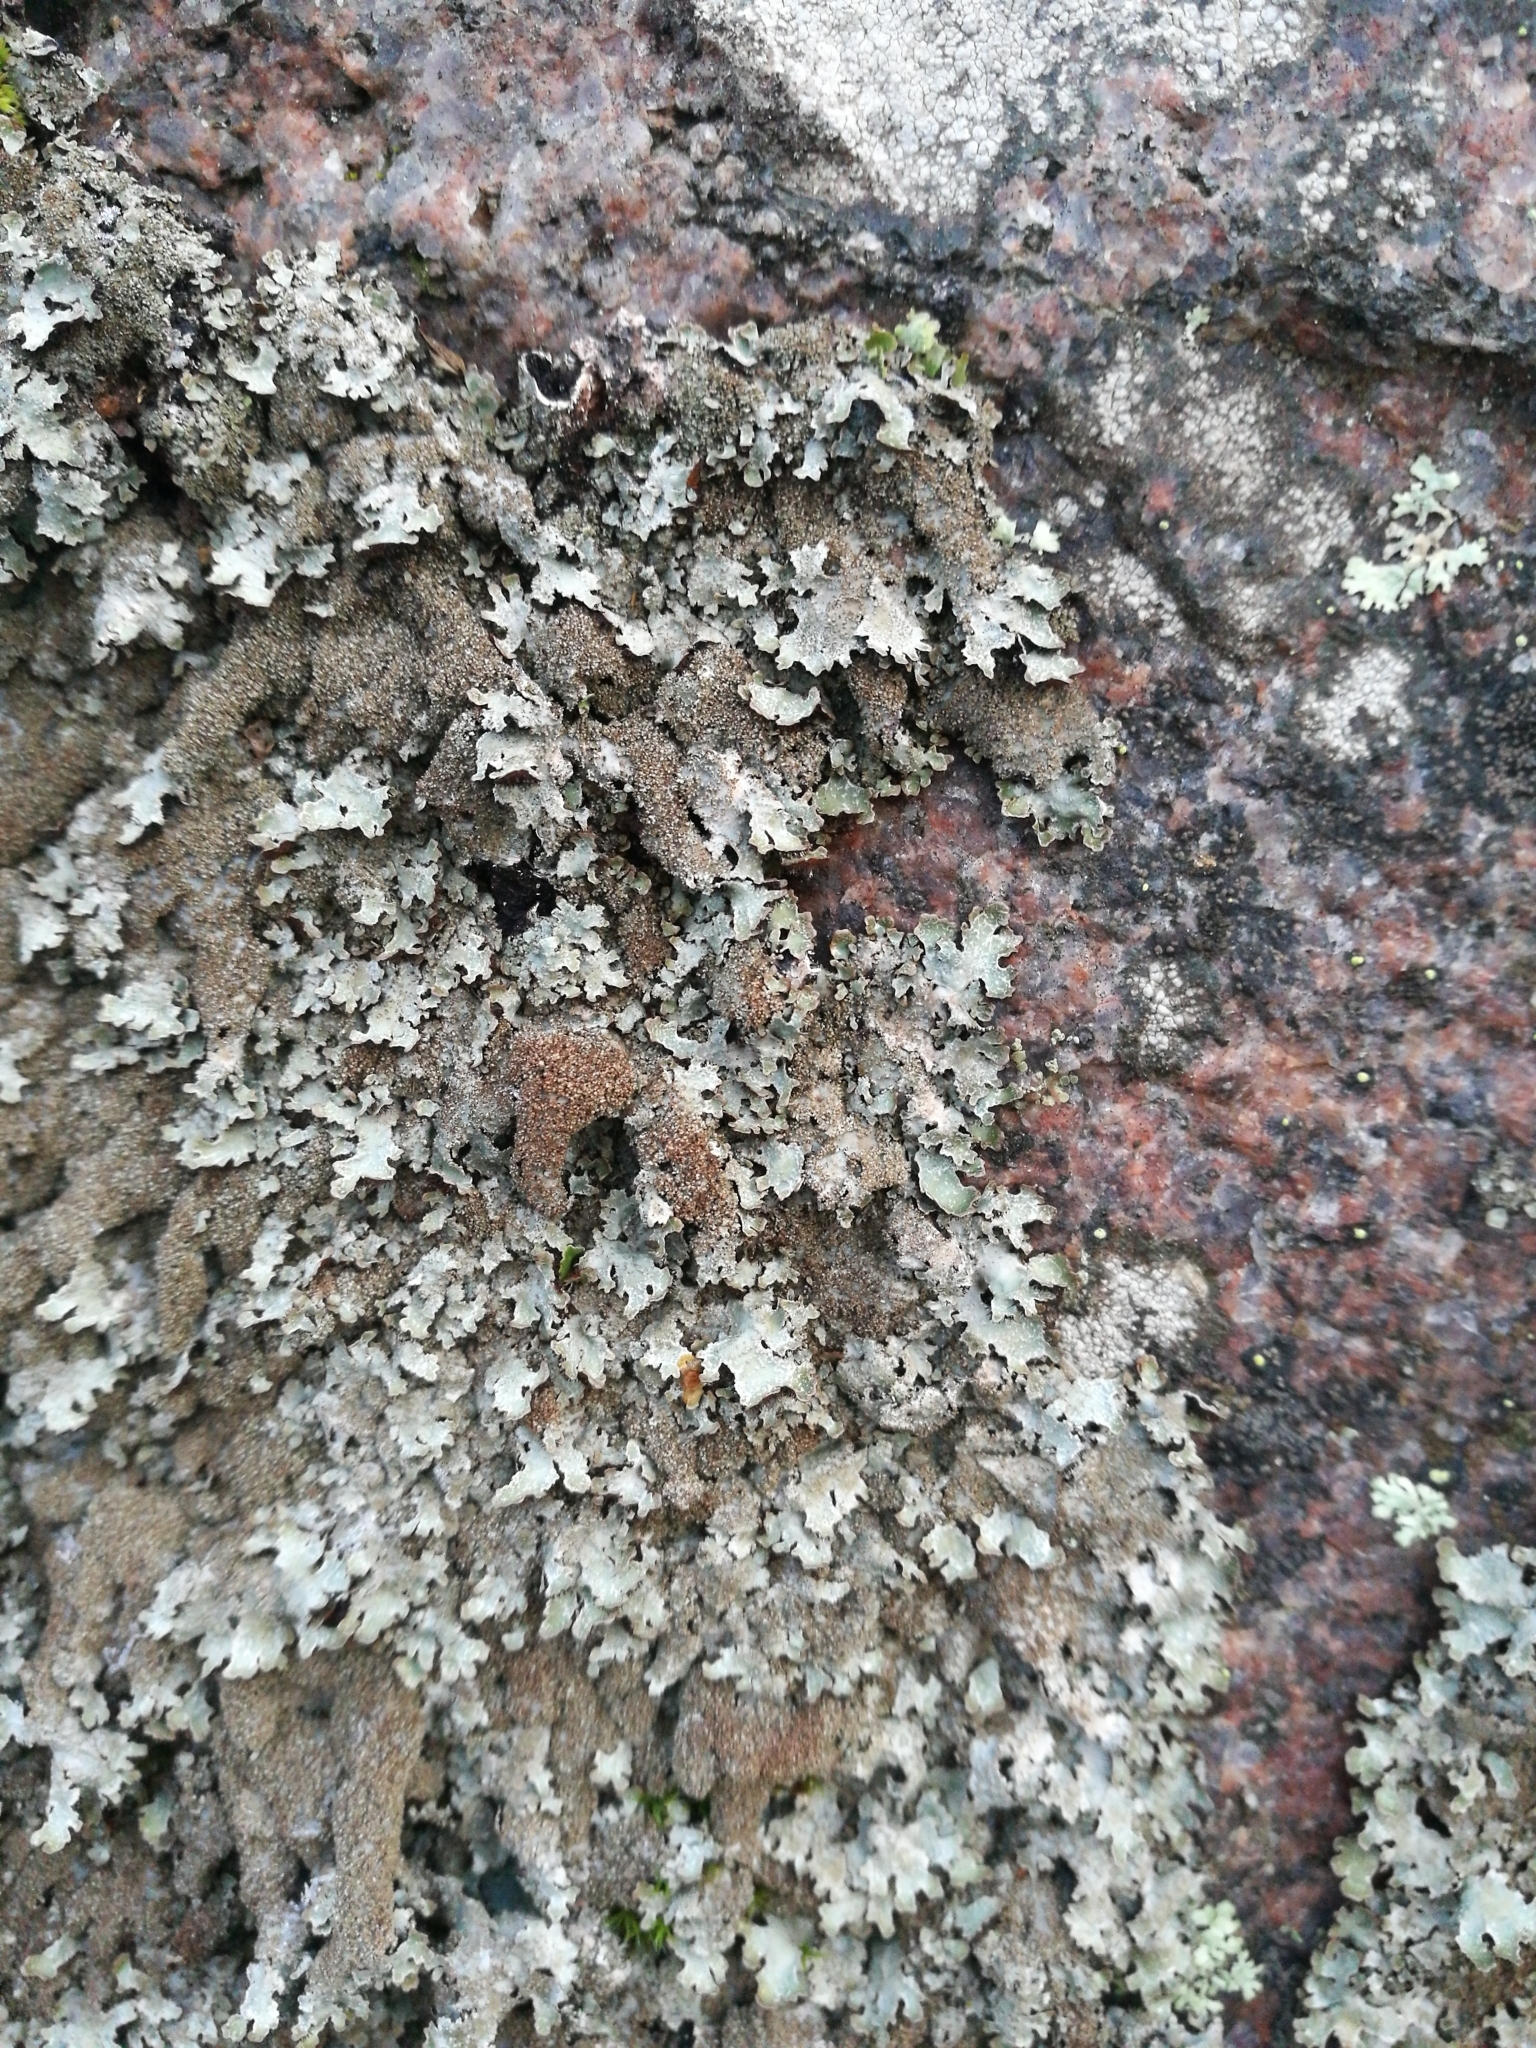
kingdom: Fungi
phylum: Ascomycota
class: Lecanoromycetes
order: Lecanorales
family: Parmeliaceae
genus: Parmelia
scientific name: Parmelia saxatilis
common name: Salted shield lichen
